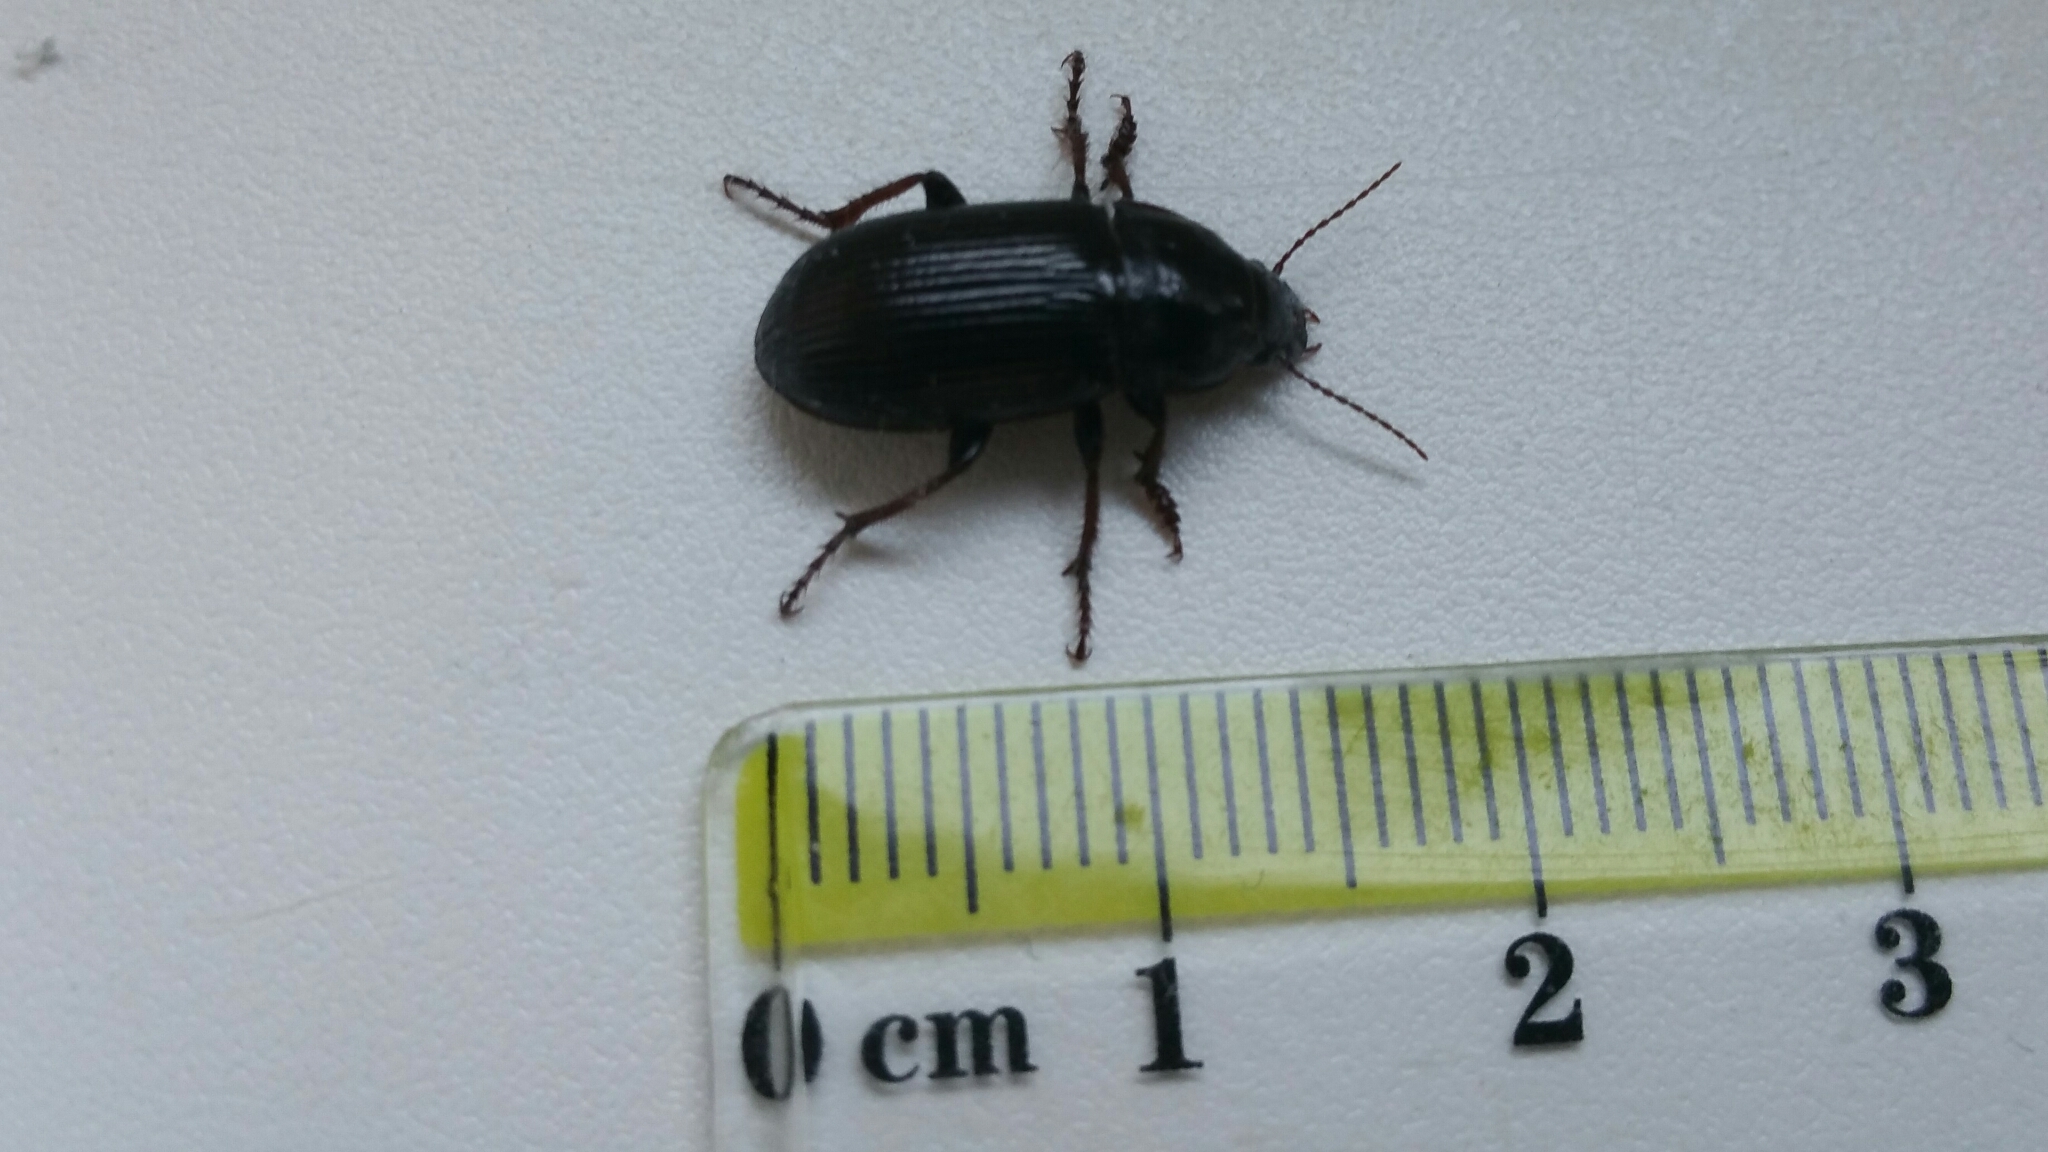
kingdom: Animalia
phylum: Arthropoda
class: Insecta
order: Coleoptera
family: Carabidae
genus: Zabrus
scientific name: Zabrus tenebrioides
